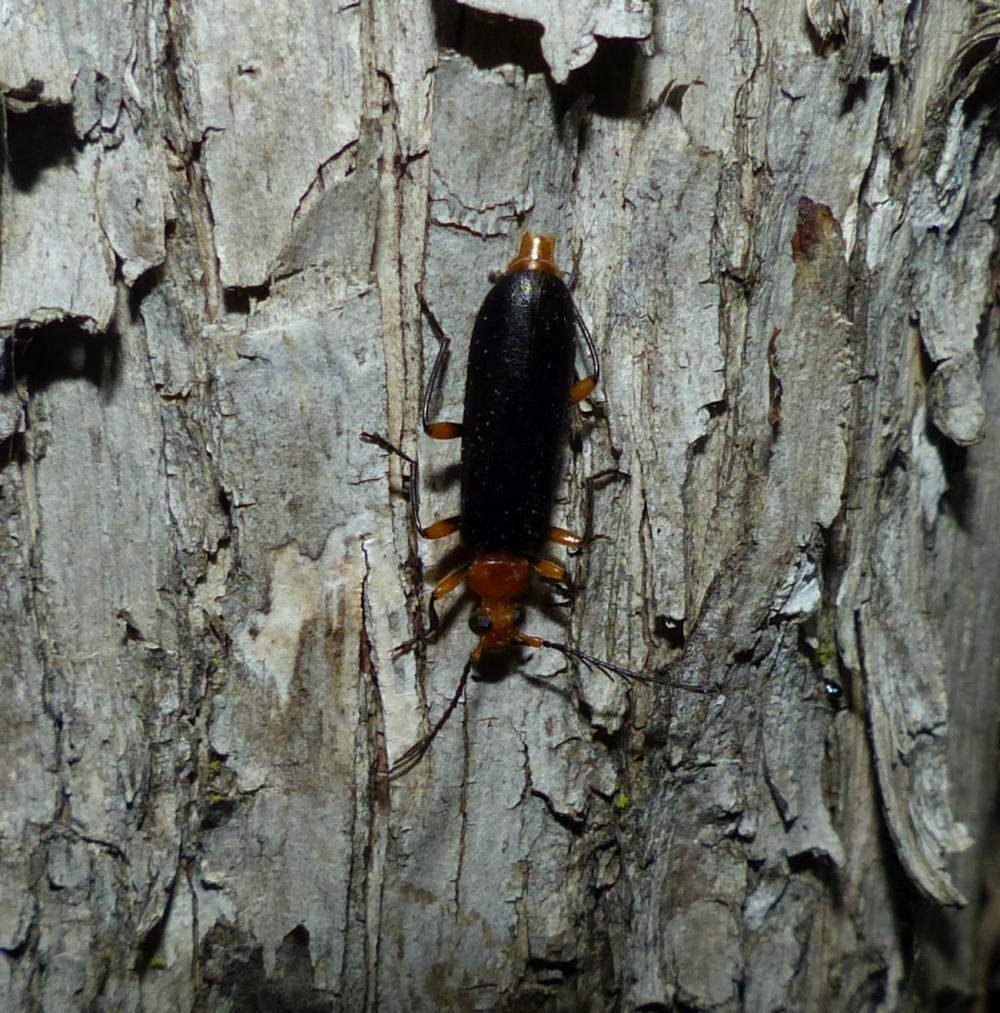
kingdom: Animalia
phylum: Arthropoda
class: Insecta
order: Coleoptera
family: Pyrochroidae
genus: Neopyrochroa
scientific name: Neopyrochroa femoralis
